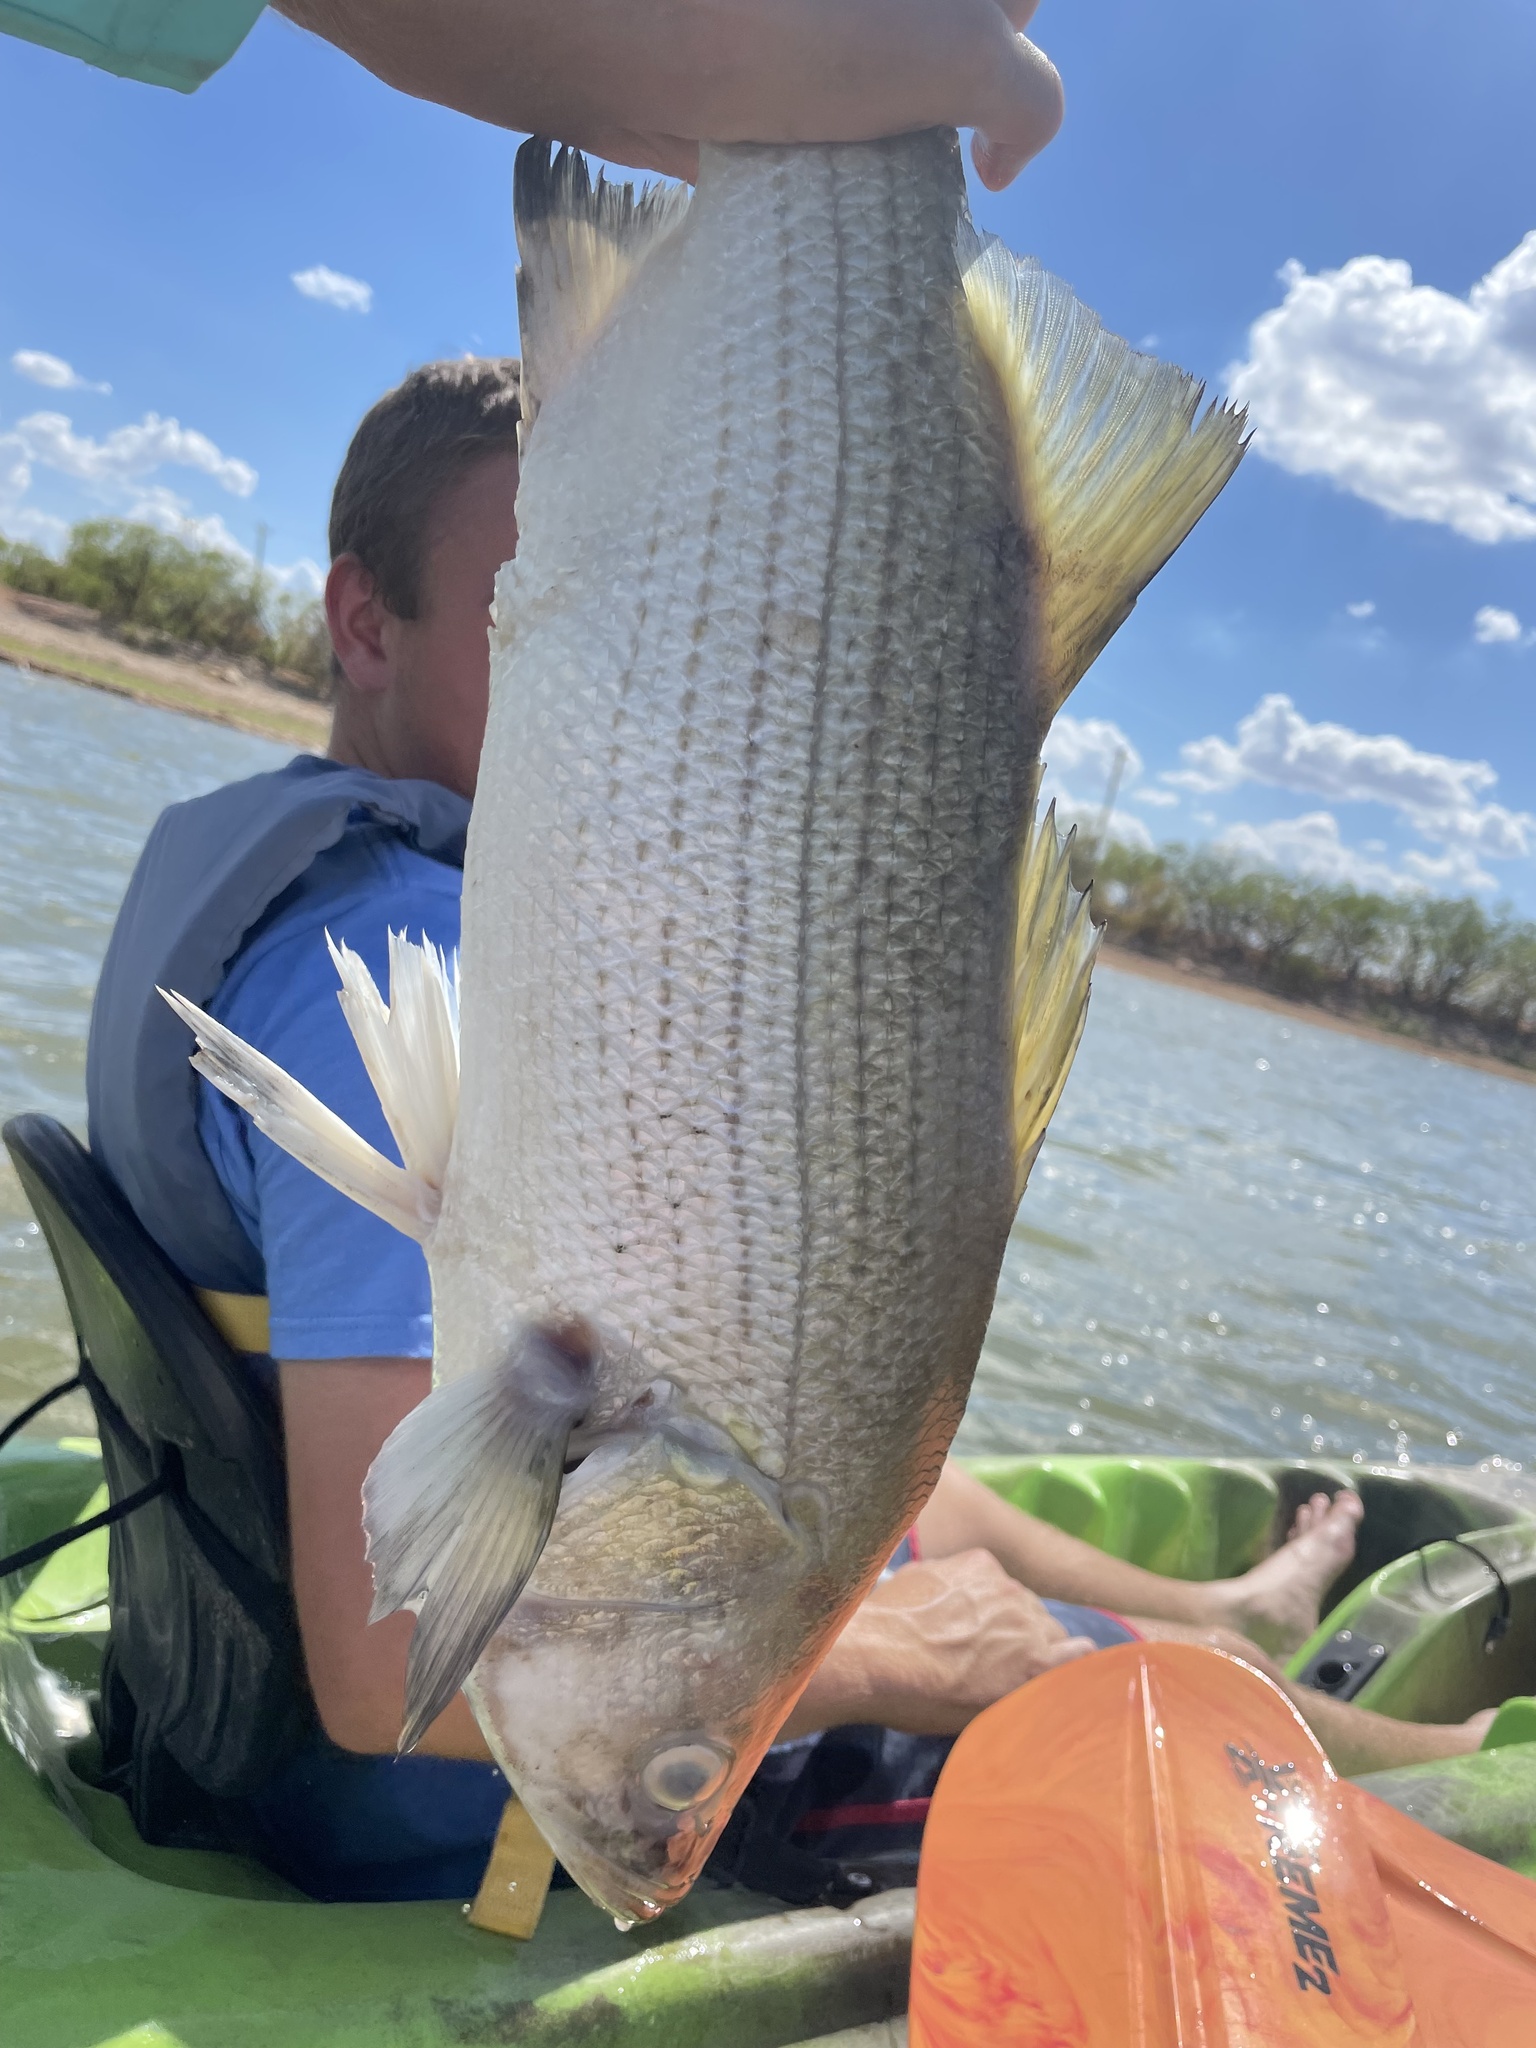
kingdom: Animalia
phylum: Chordata
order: Perciformes
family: Moronidae
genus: Morone
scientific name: Morone chrysops
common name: White bass
